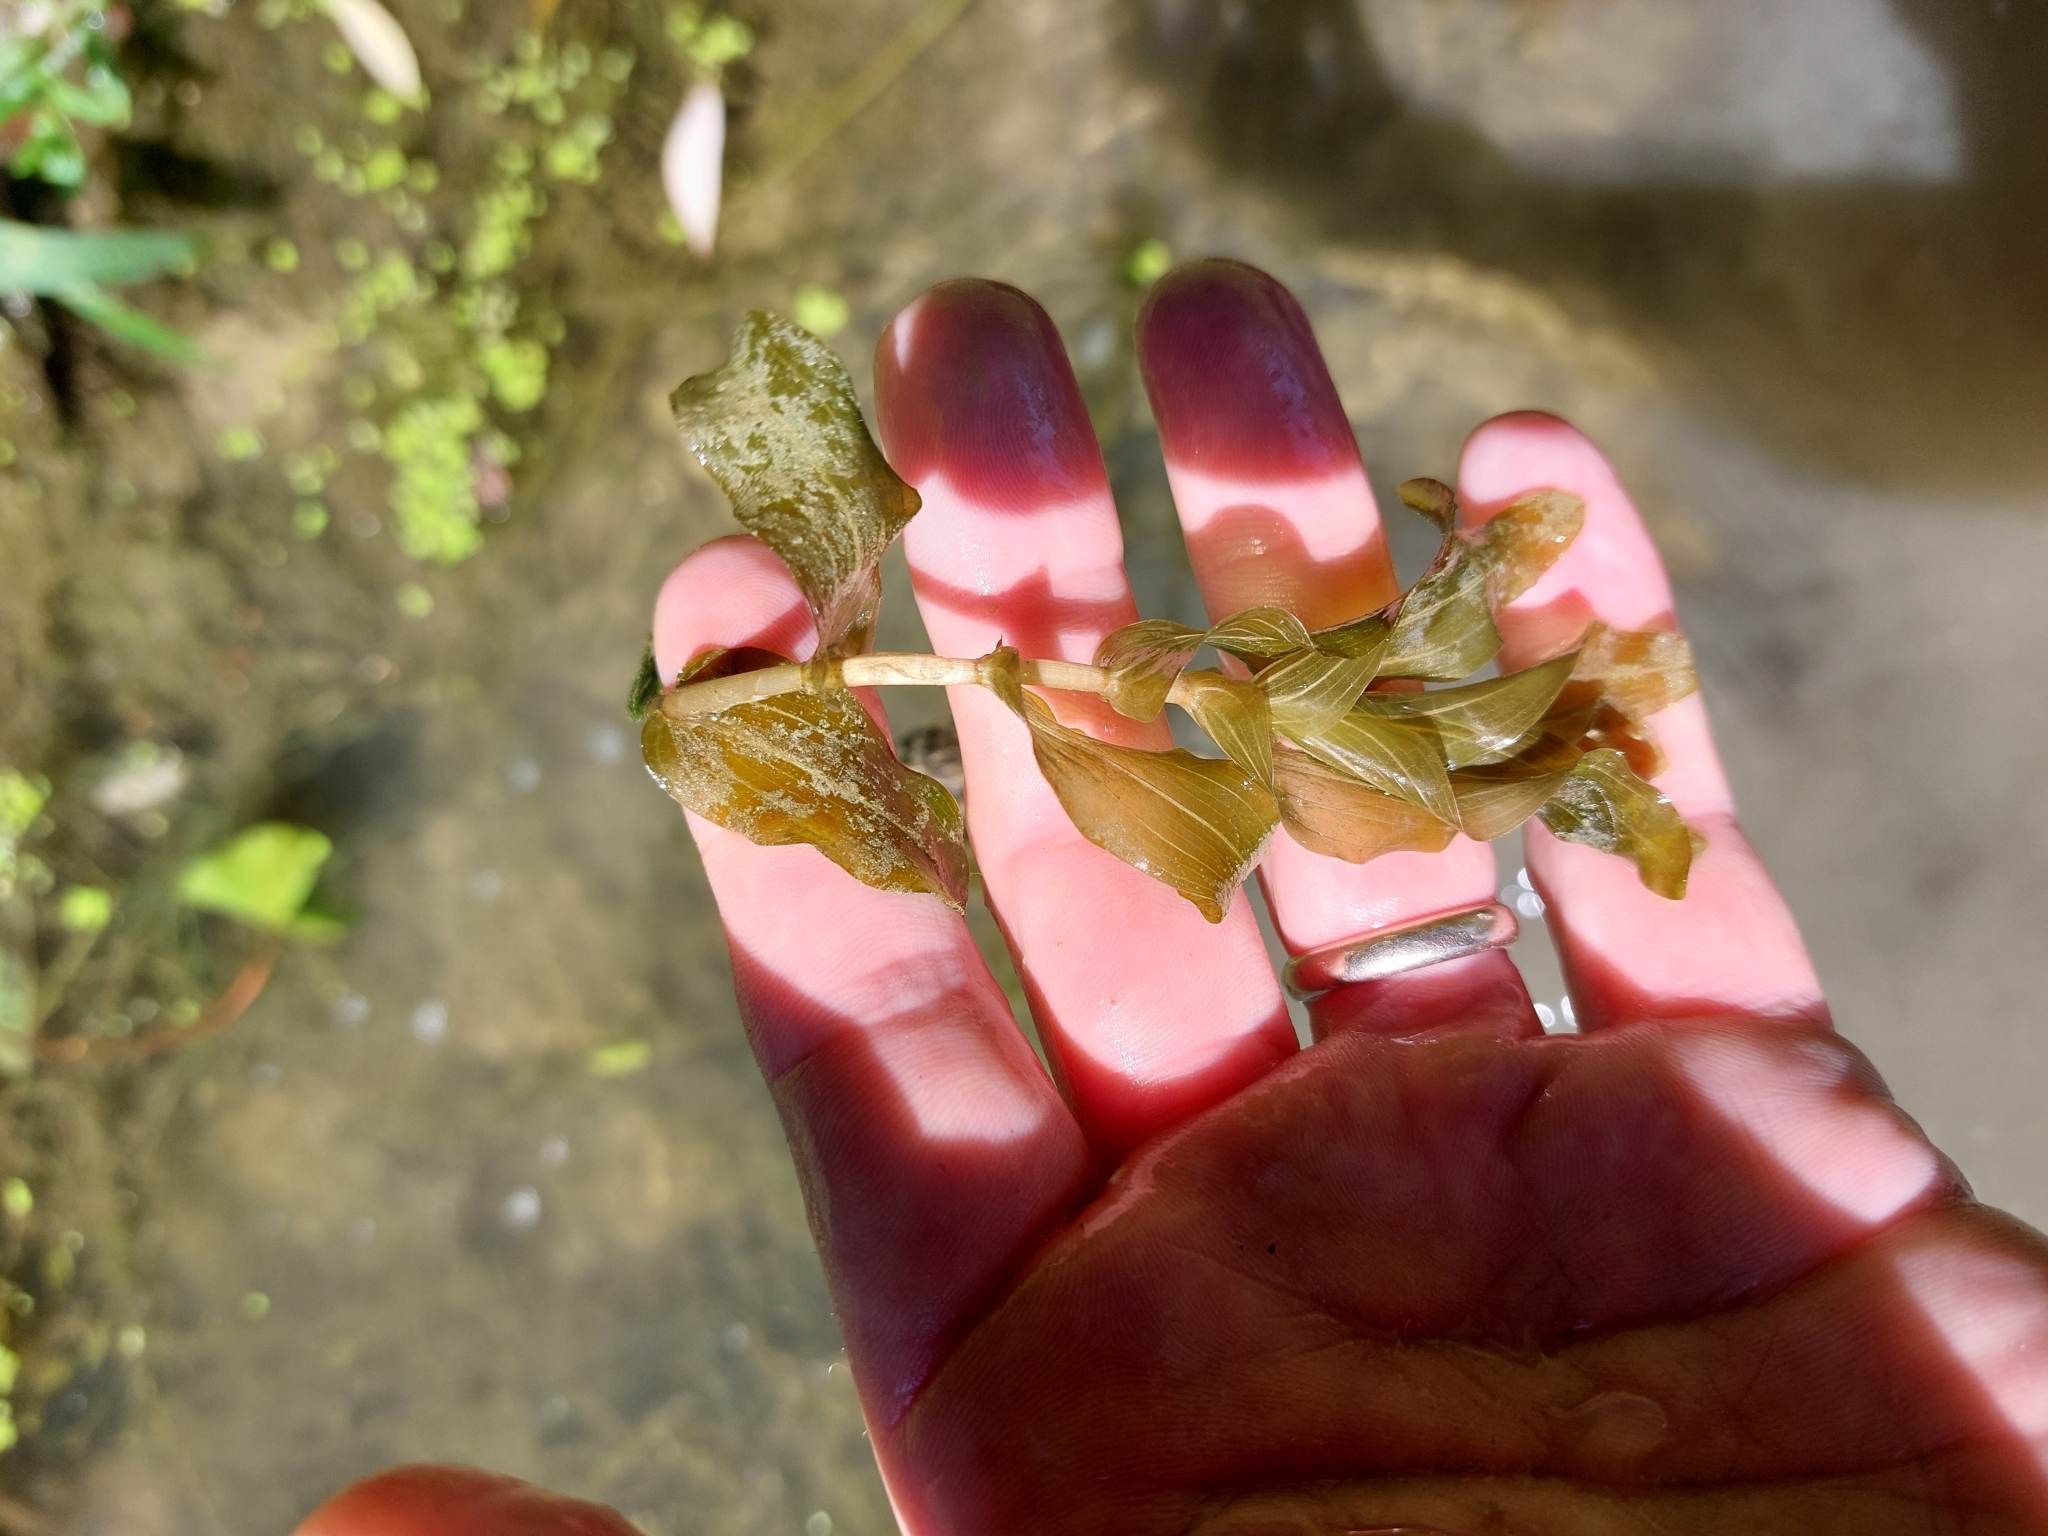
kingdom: Plantae
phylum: Tracheophyta
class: Liliopsida
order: Alismatales
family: Potamogetonaceae
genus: Potamogeton
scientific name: Potamogeton perfoliatus
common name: Perfoliate pondweed
